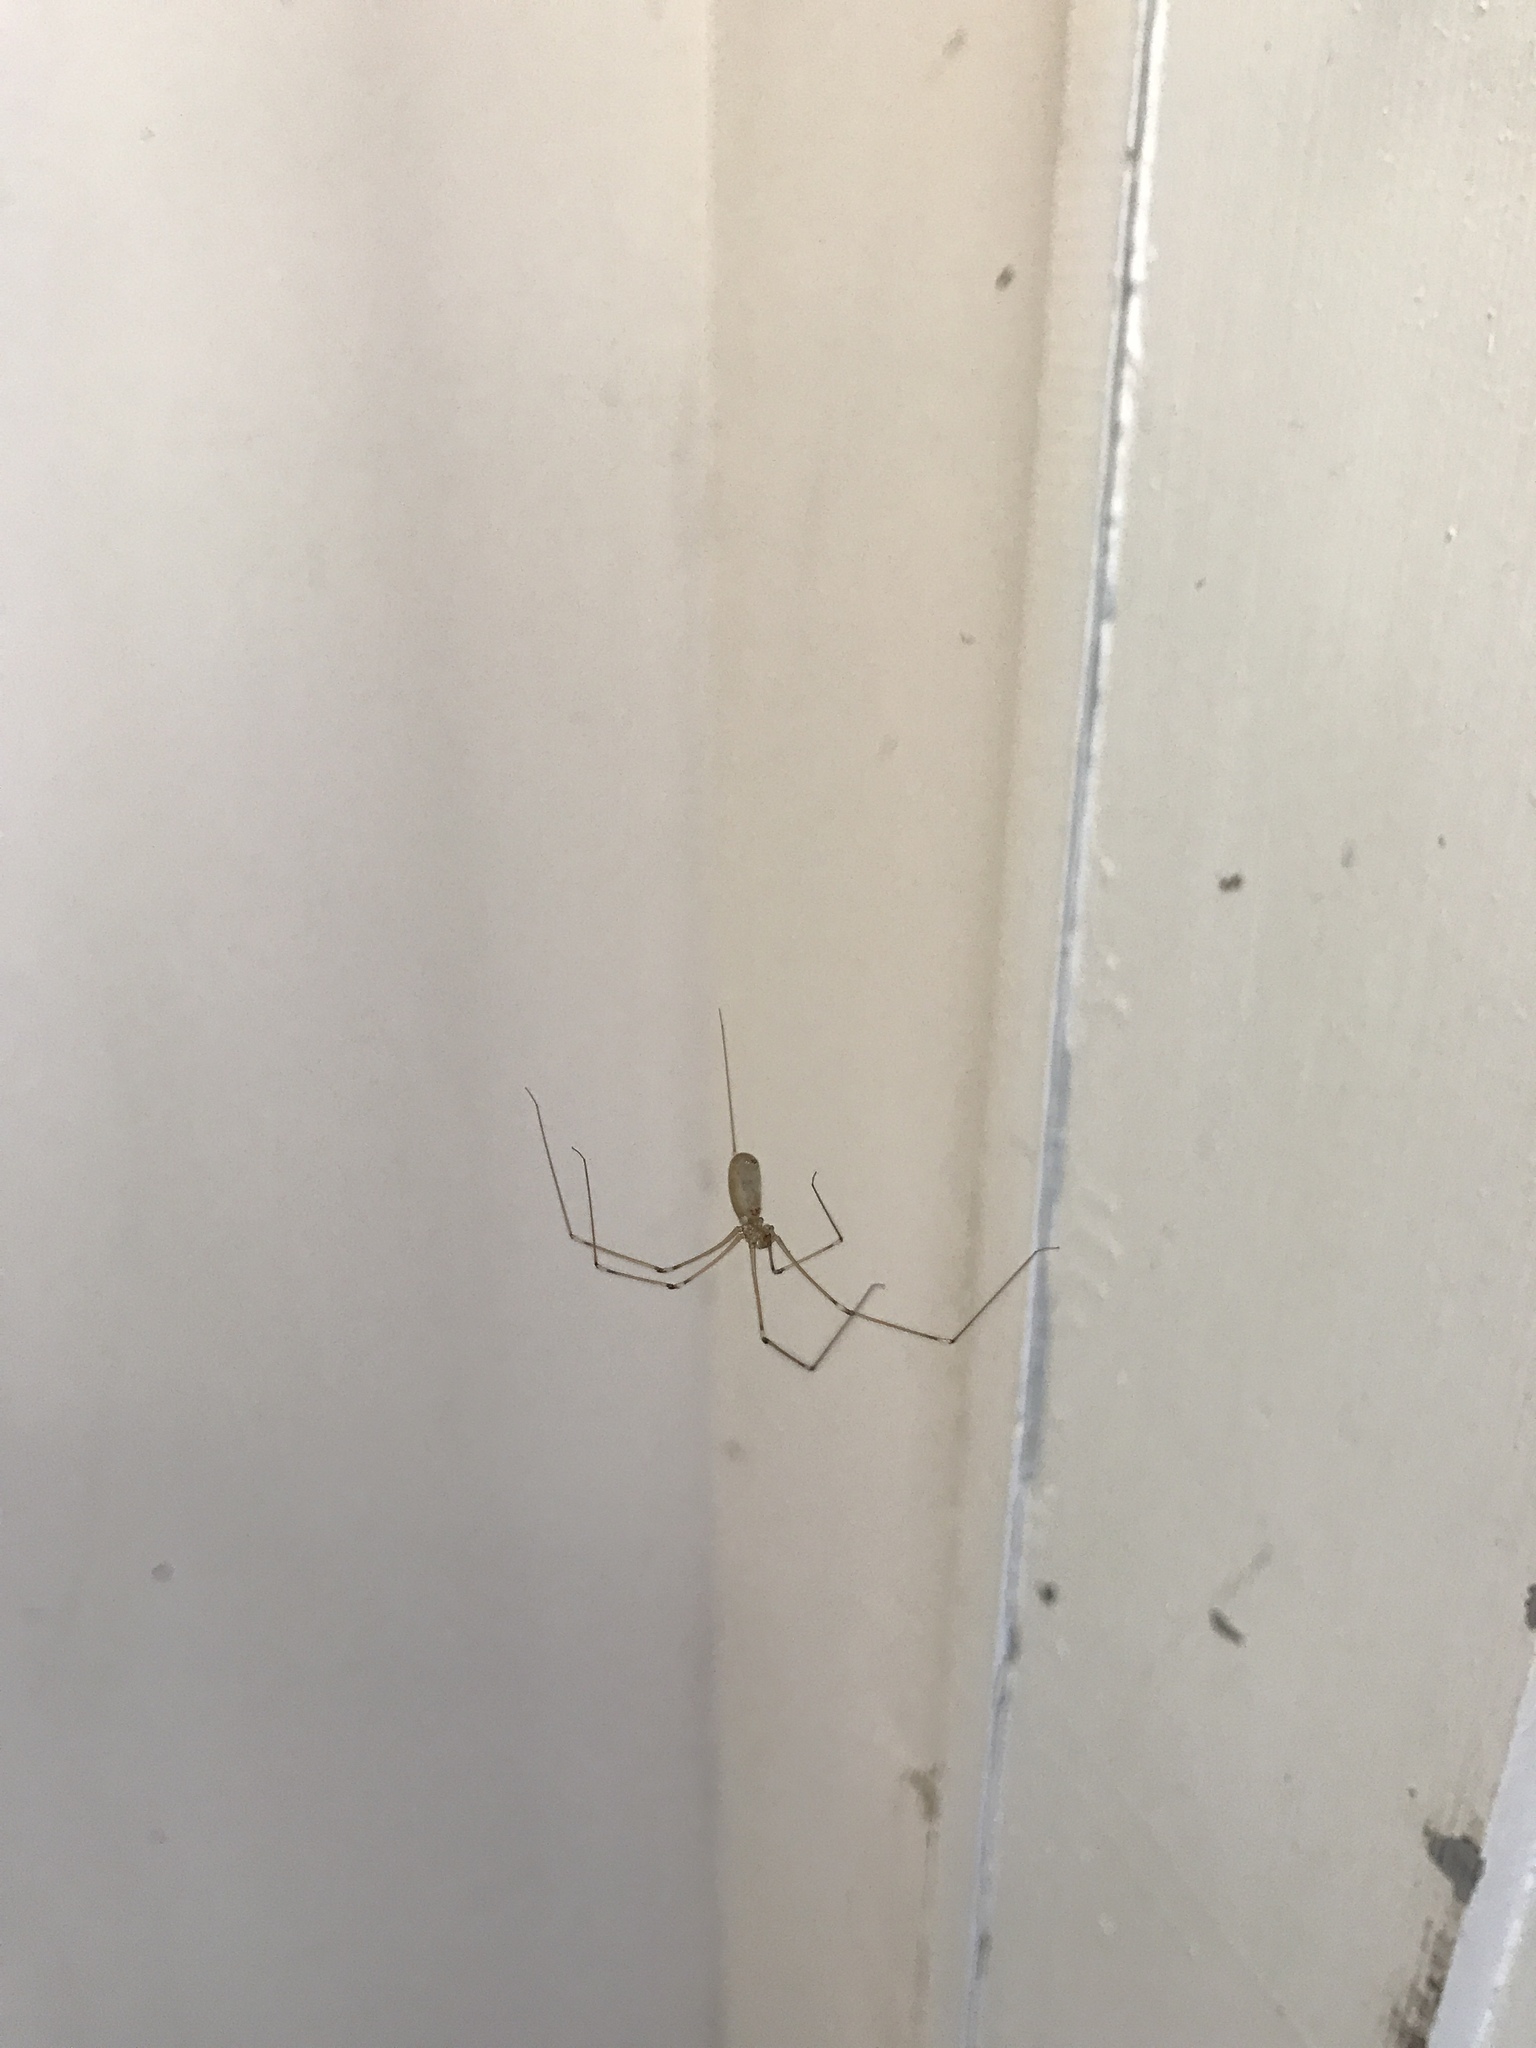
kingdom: Animalia
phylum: Arthropoda
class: Arachnida
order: Araneae
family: Pholcidae
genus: Pholcus
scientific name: Pholcus phalangioides
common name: Longbodied cellar spider
